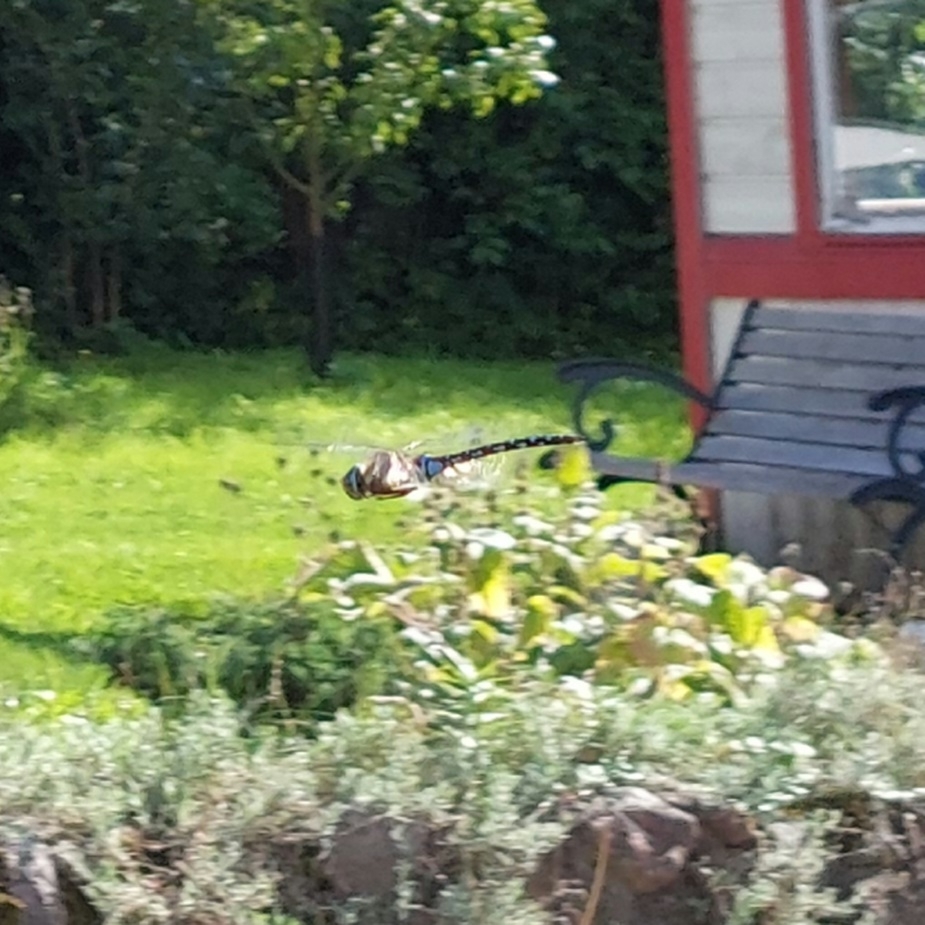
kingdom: Animalia
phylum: Arthropoda
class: Insecta
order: Odonata
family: Aeshnidae
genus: Aeshna
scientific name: Aeshna mixta
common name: Migrant hawker
